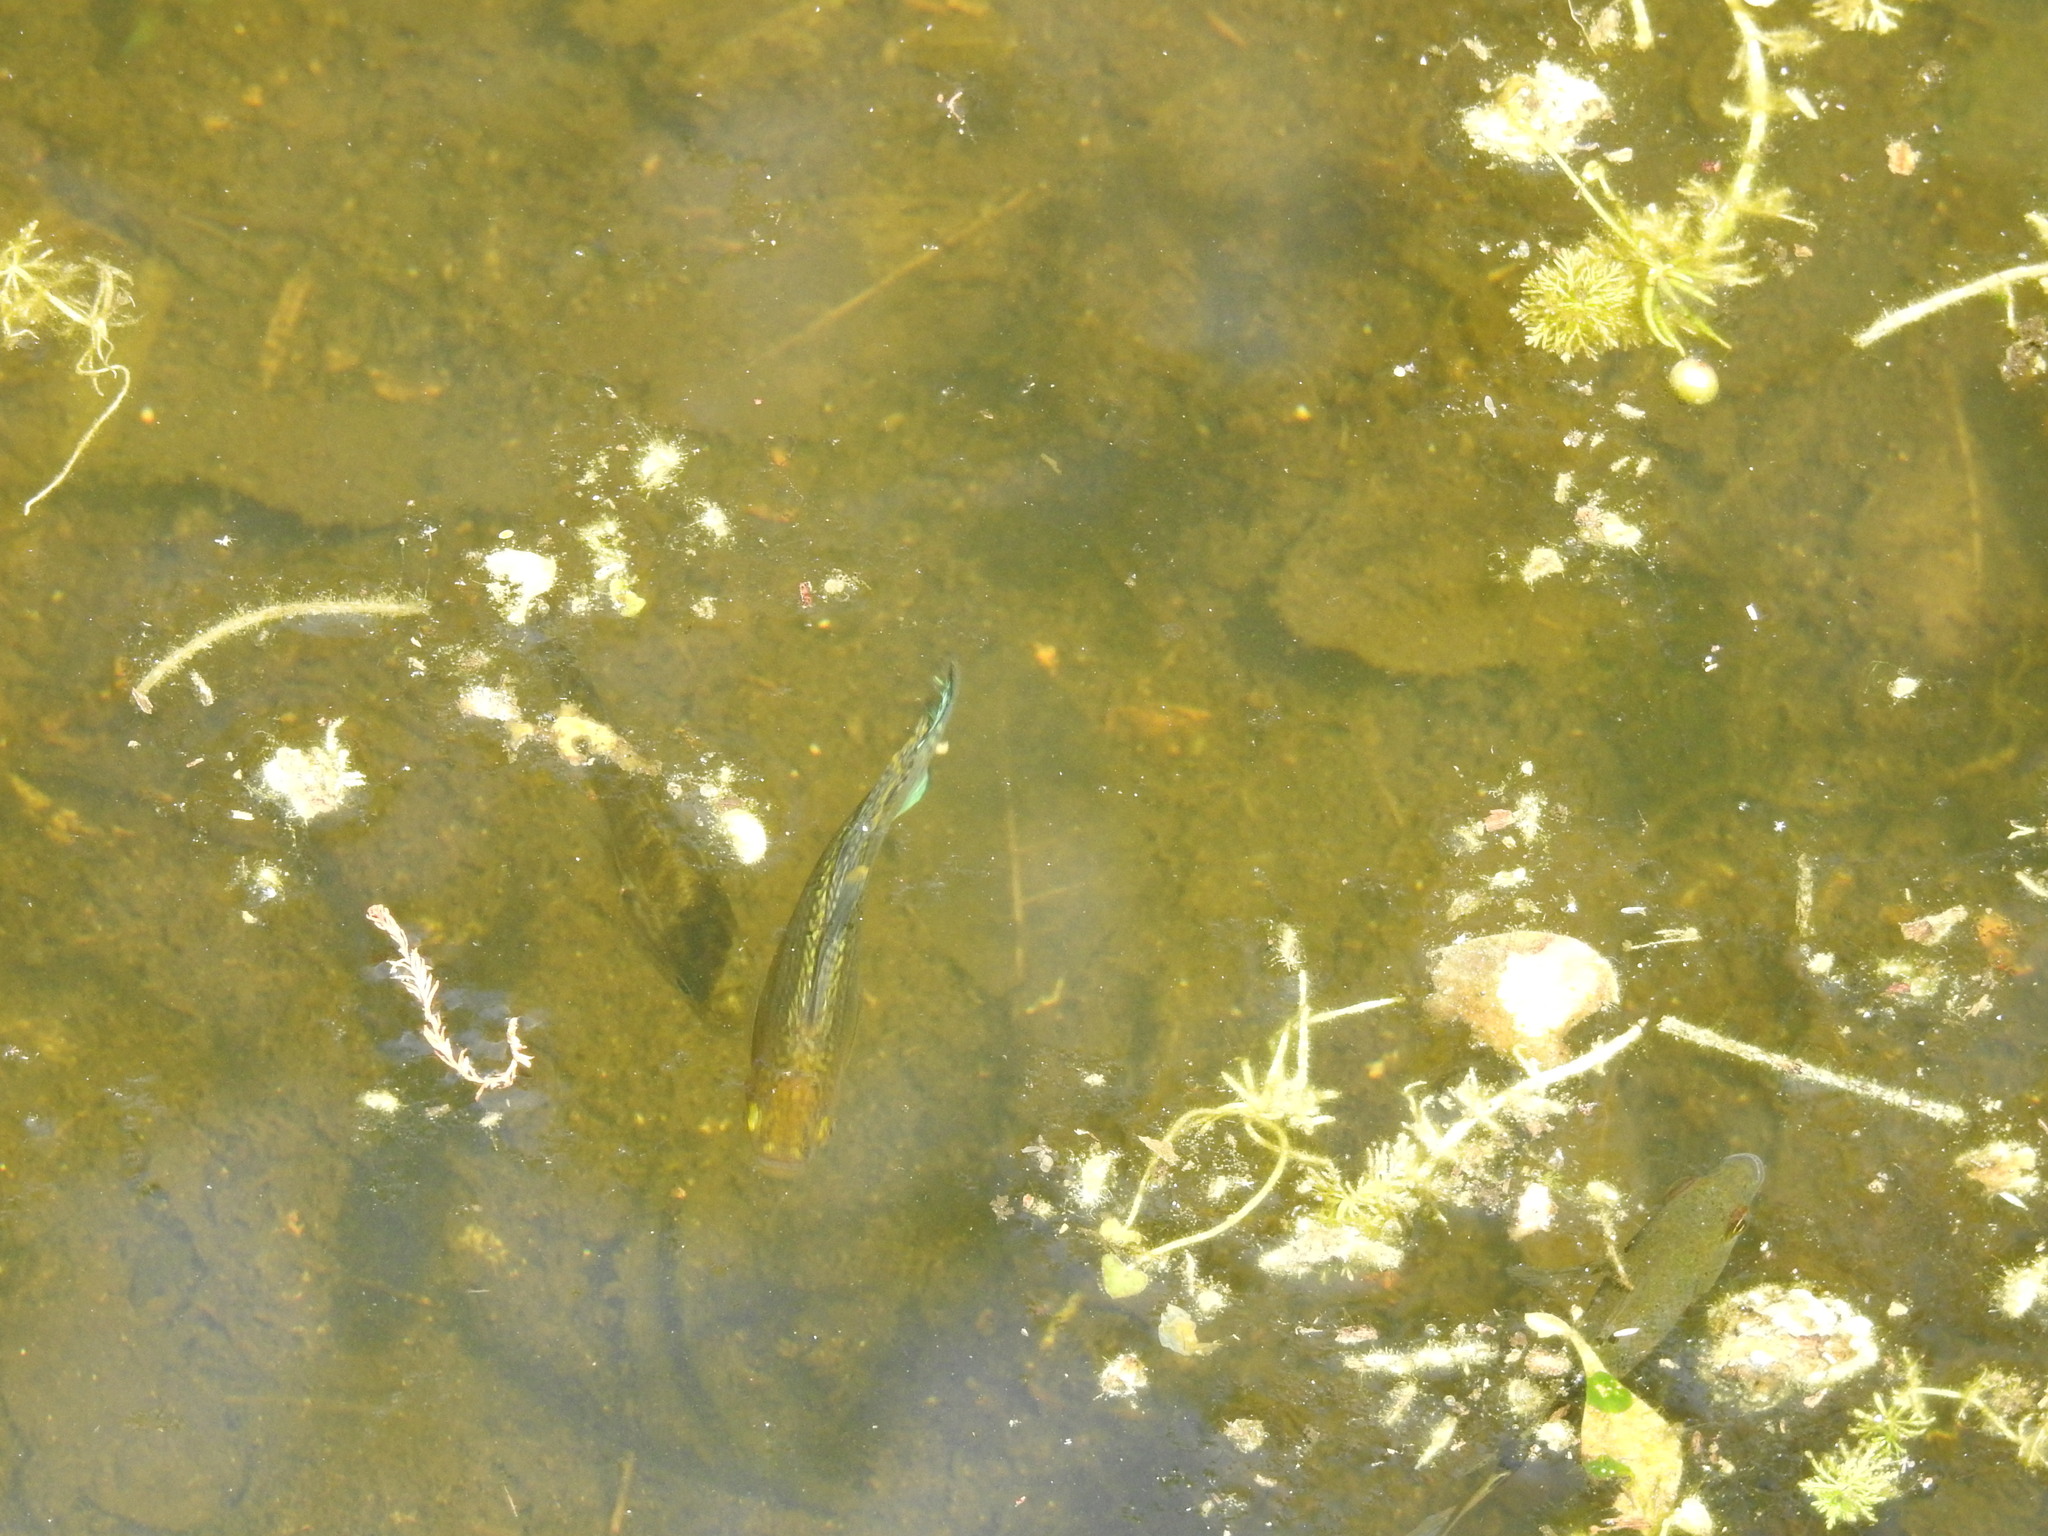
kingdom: Animalia
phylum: Chordata
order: Cyprinodontiformes
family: Poeciliidae
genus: Poecilia
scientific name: Poecilia latipinna
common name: Sailfin molly
